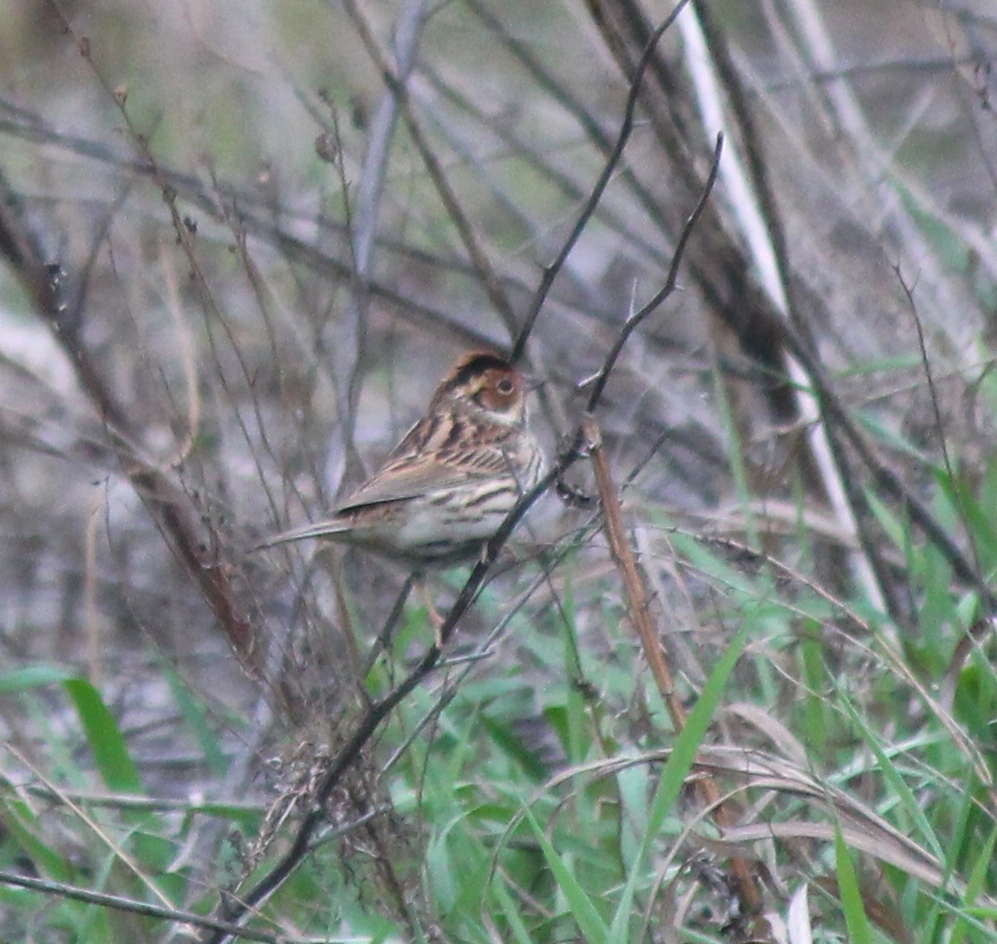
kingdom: Animalia
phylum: Chordata
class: Aves
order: Passeriformes
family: Emberizidae
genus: Emberiza
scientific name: Emberiza pusilla
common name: Little bunting
